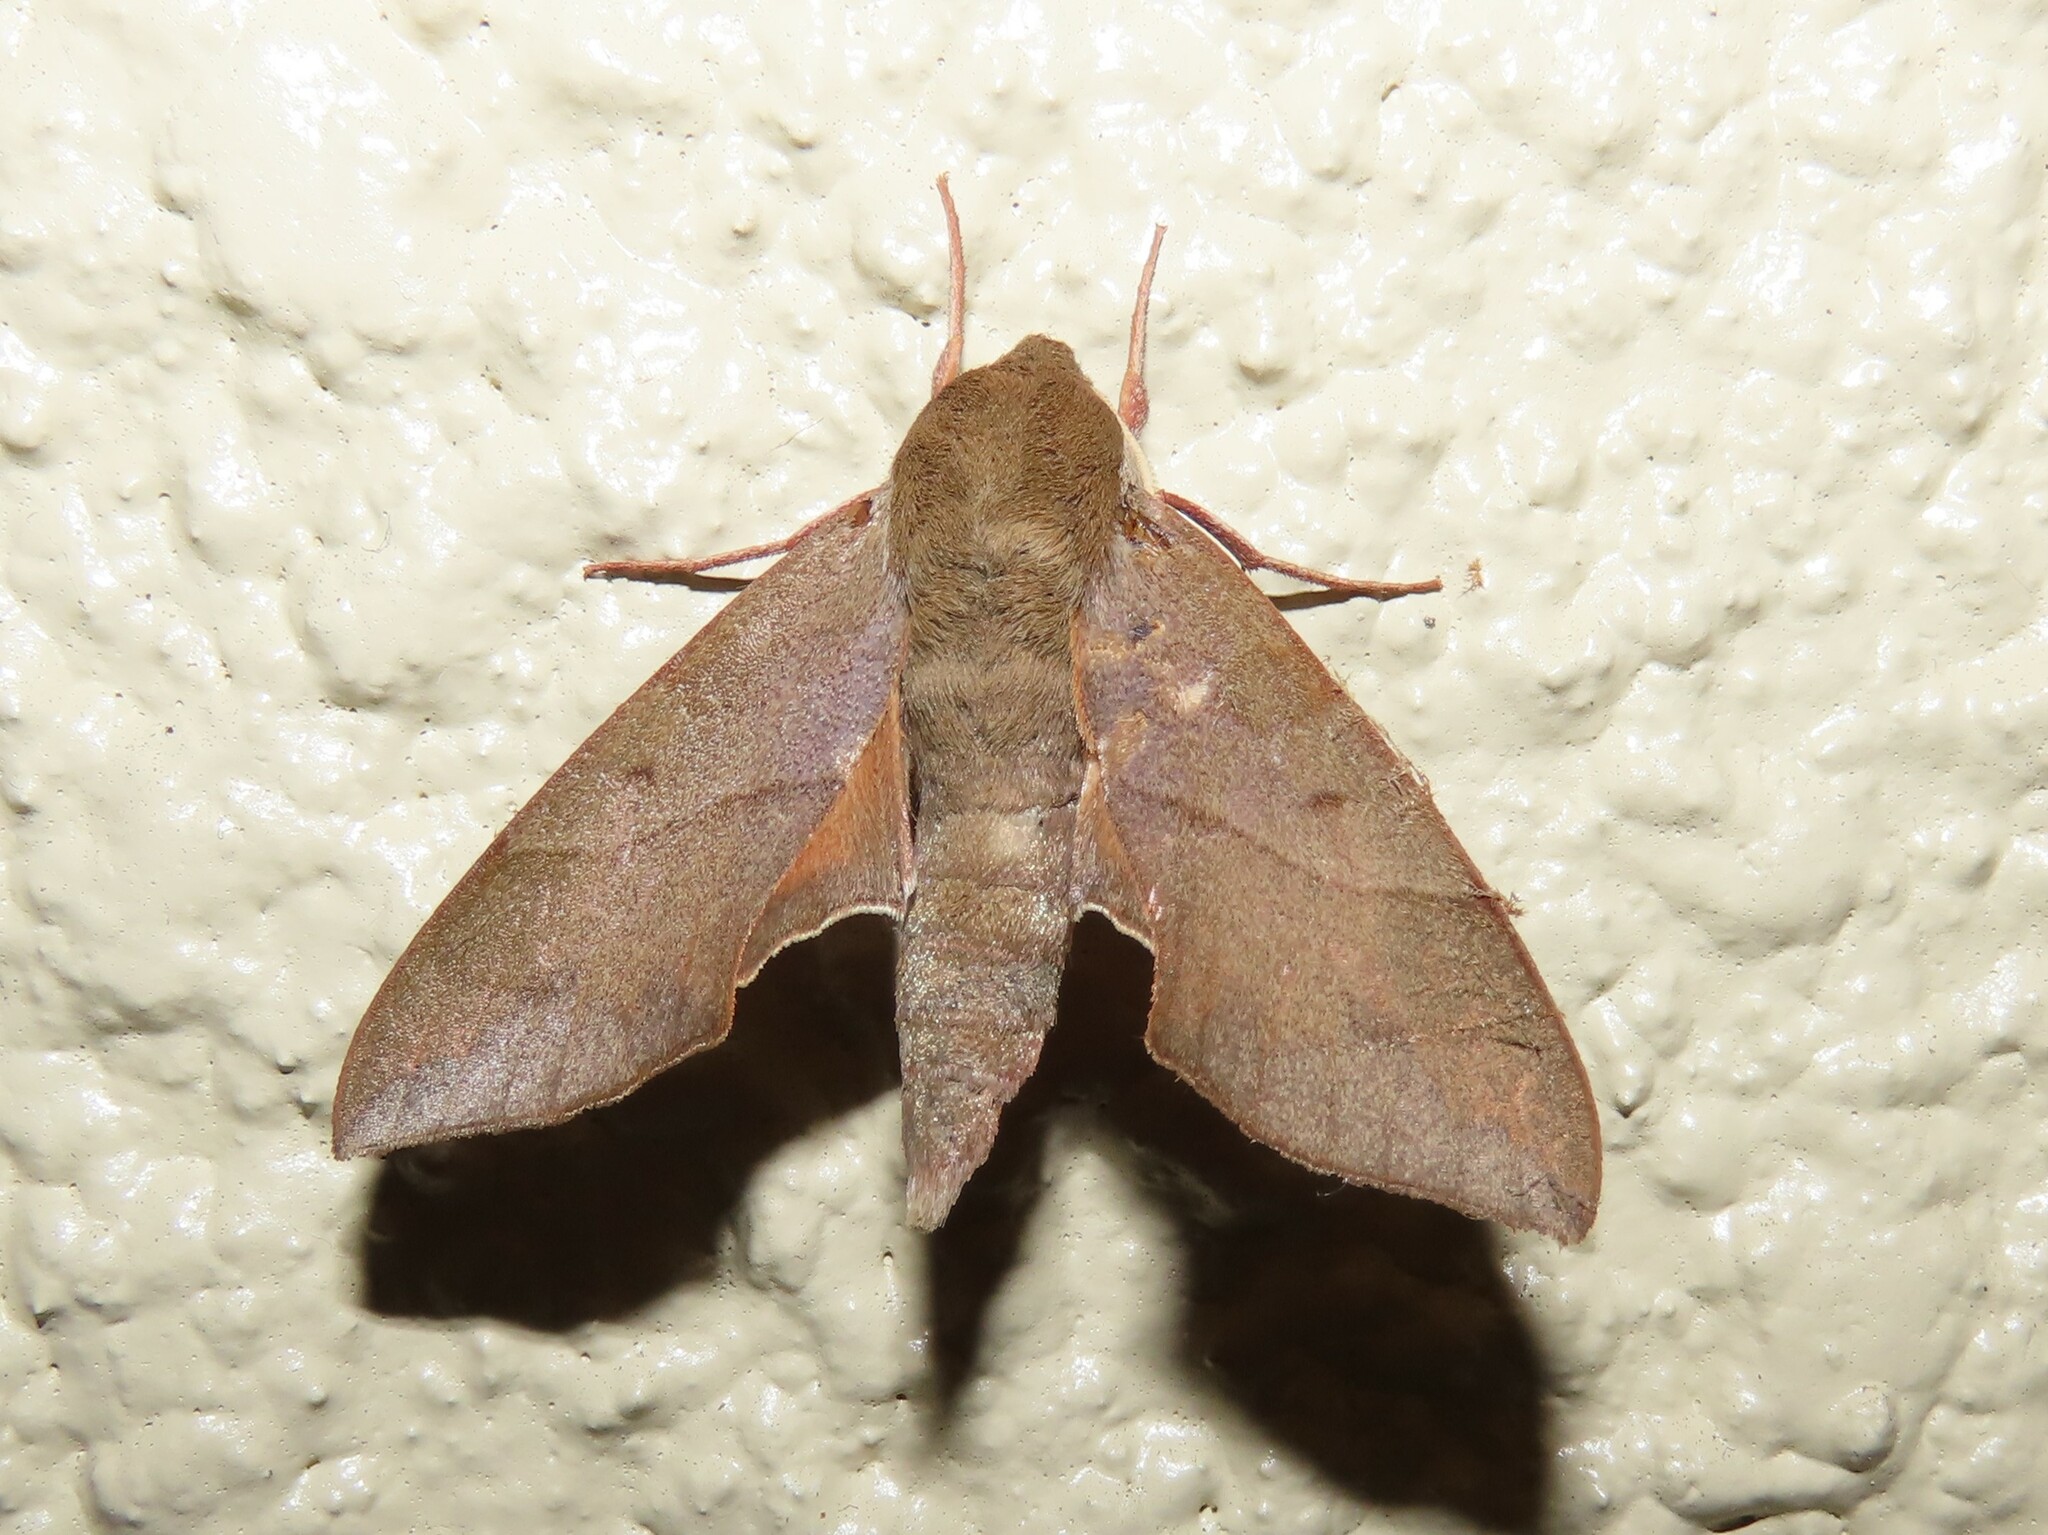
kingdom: Animalia
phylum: Arthropoda
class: Insecta
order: Lepidoptera
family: Sphingidae
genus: Darapsa
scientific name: Darapsa myron
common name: Hog sphinx
